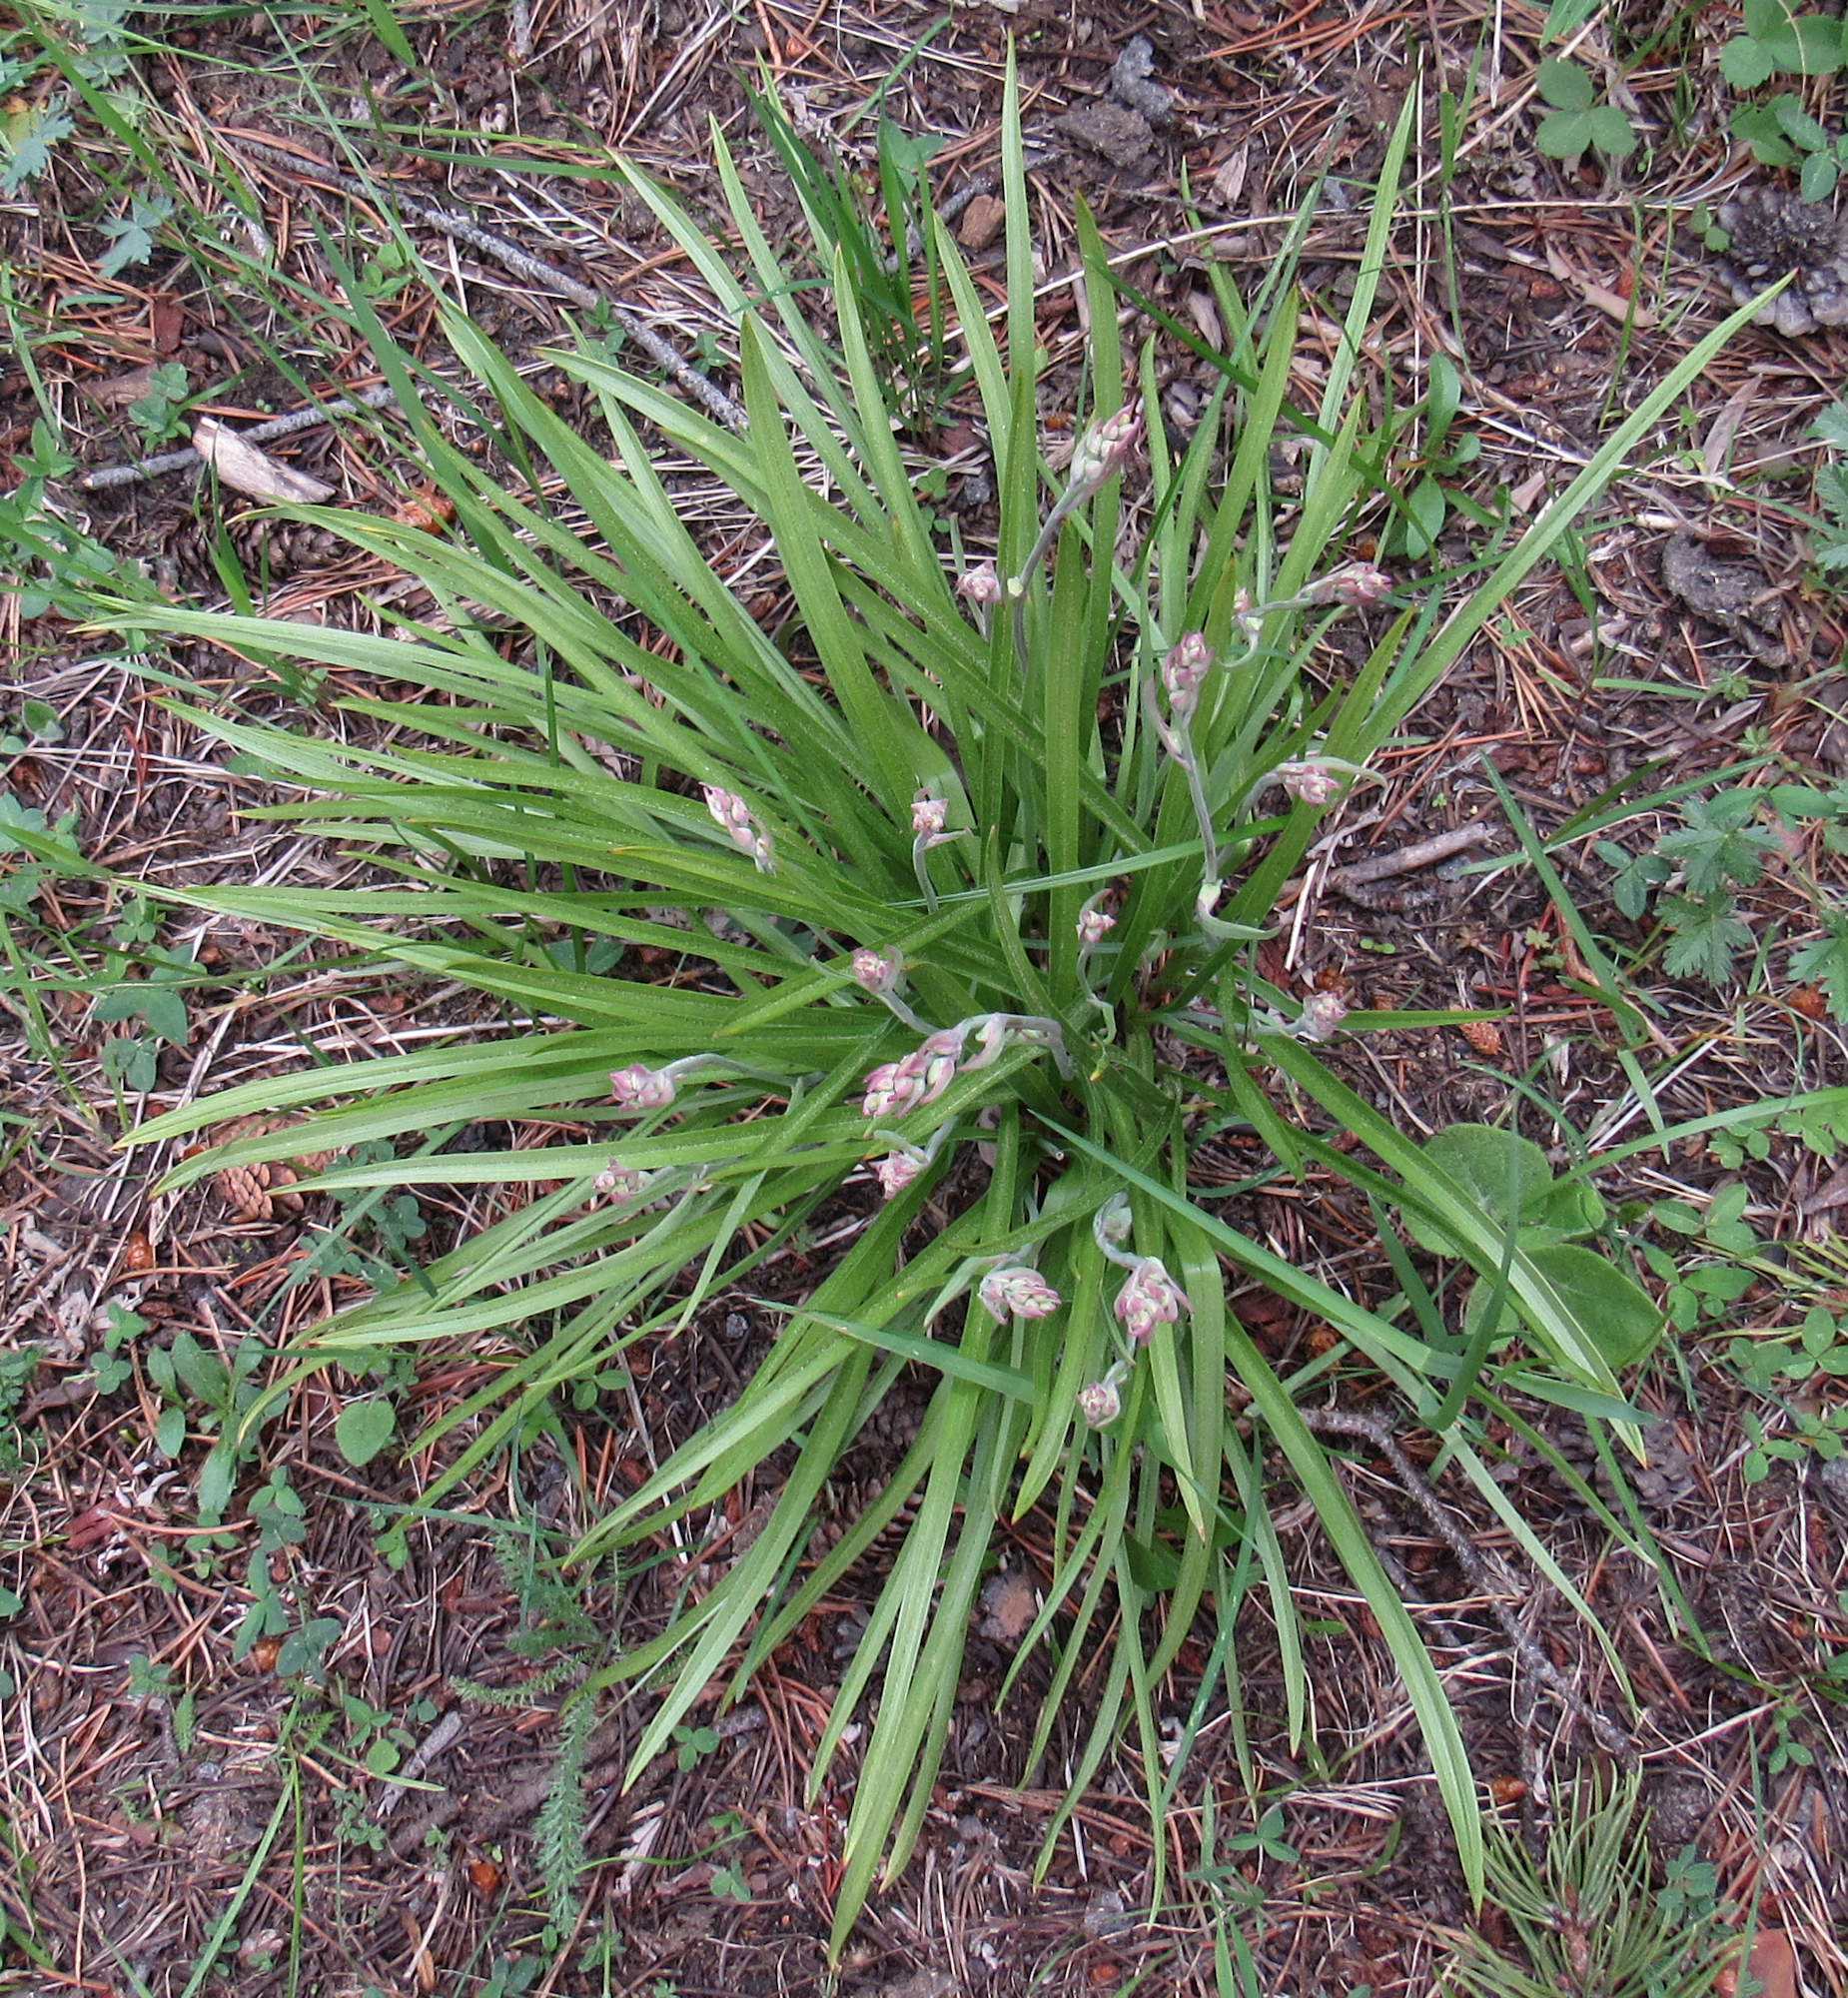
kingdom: Plantae
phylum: Tracheophyta
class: Liliopsida
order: Liliales
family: Melanthiaceae
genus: Anticlea
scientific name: Anticlea elegans
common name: Mountain death camas
